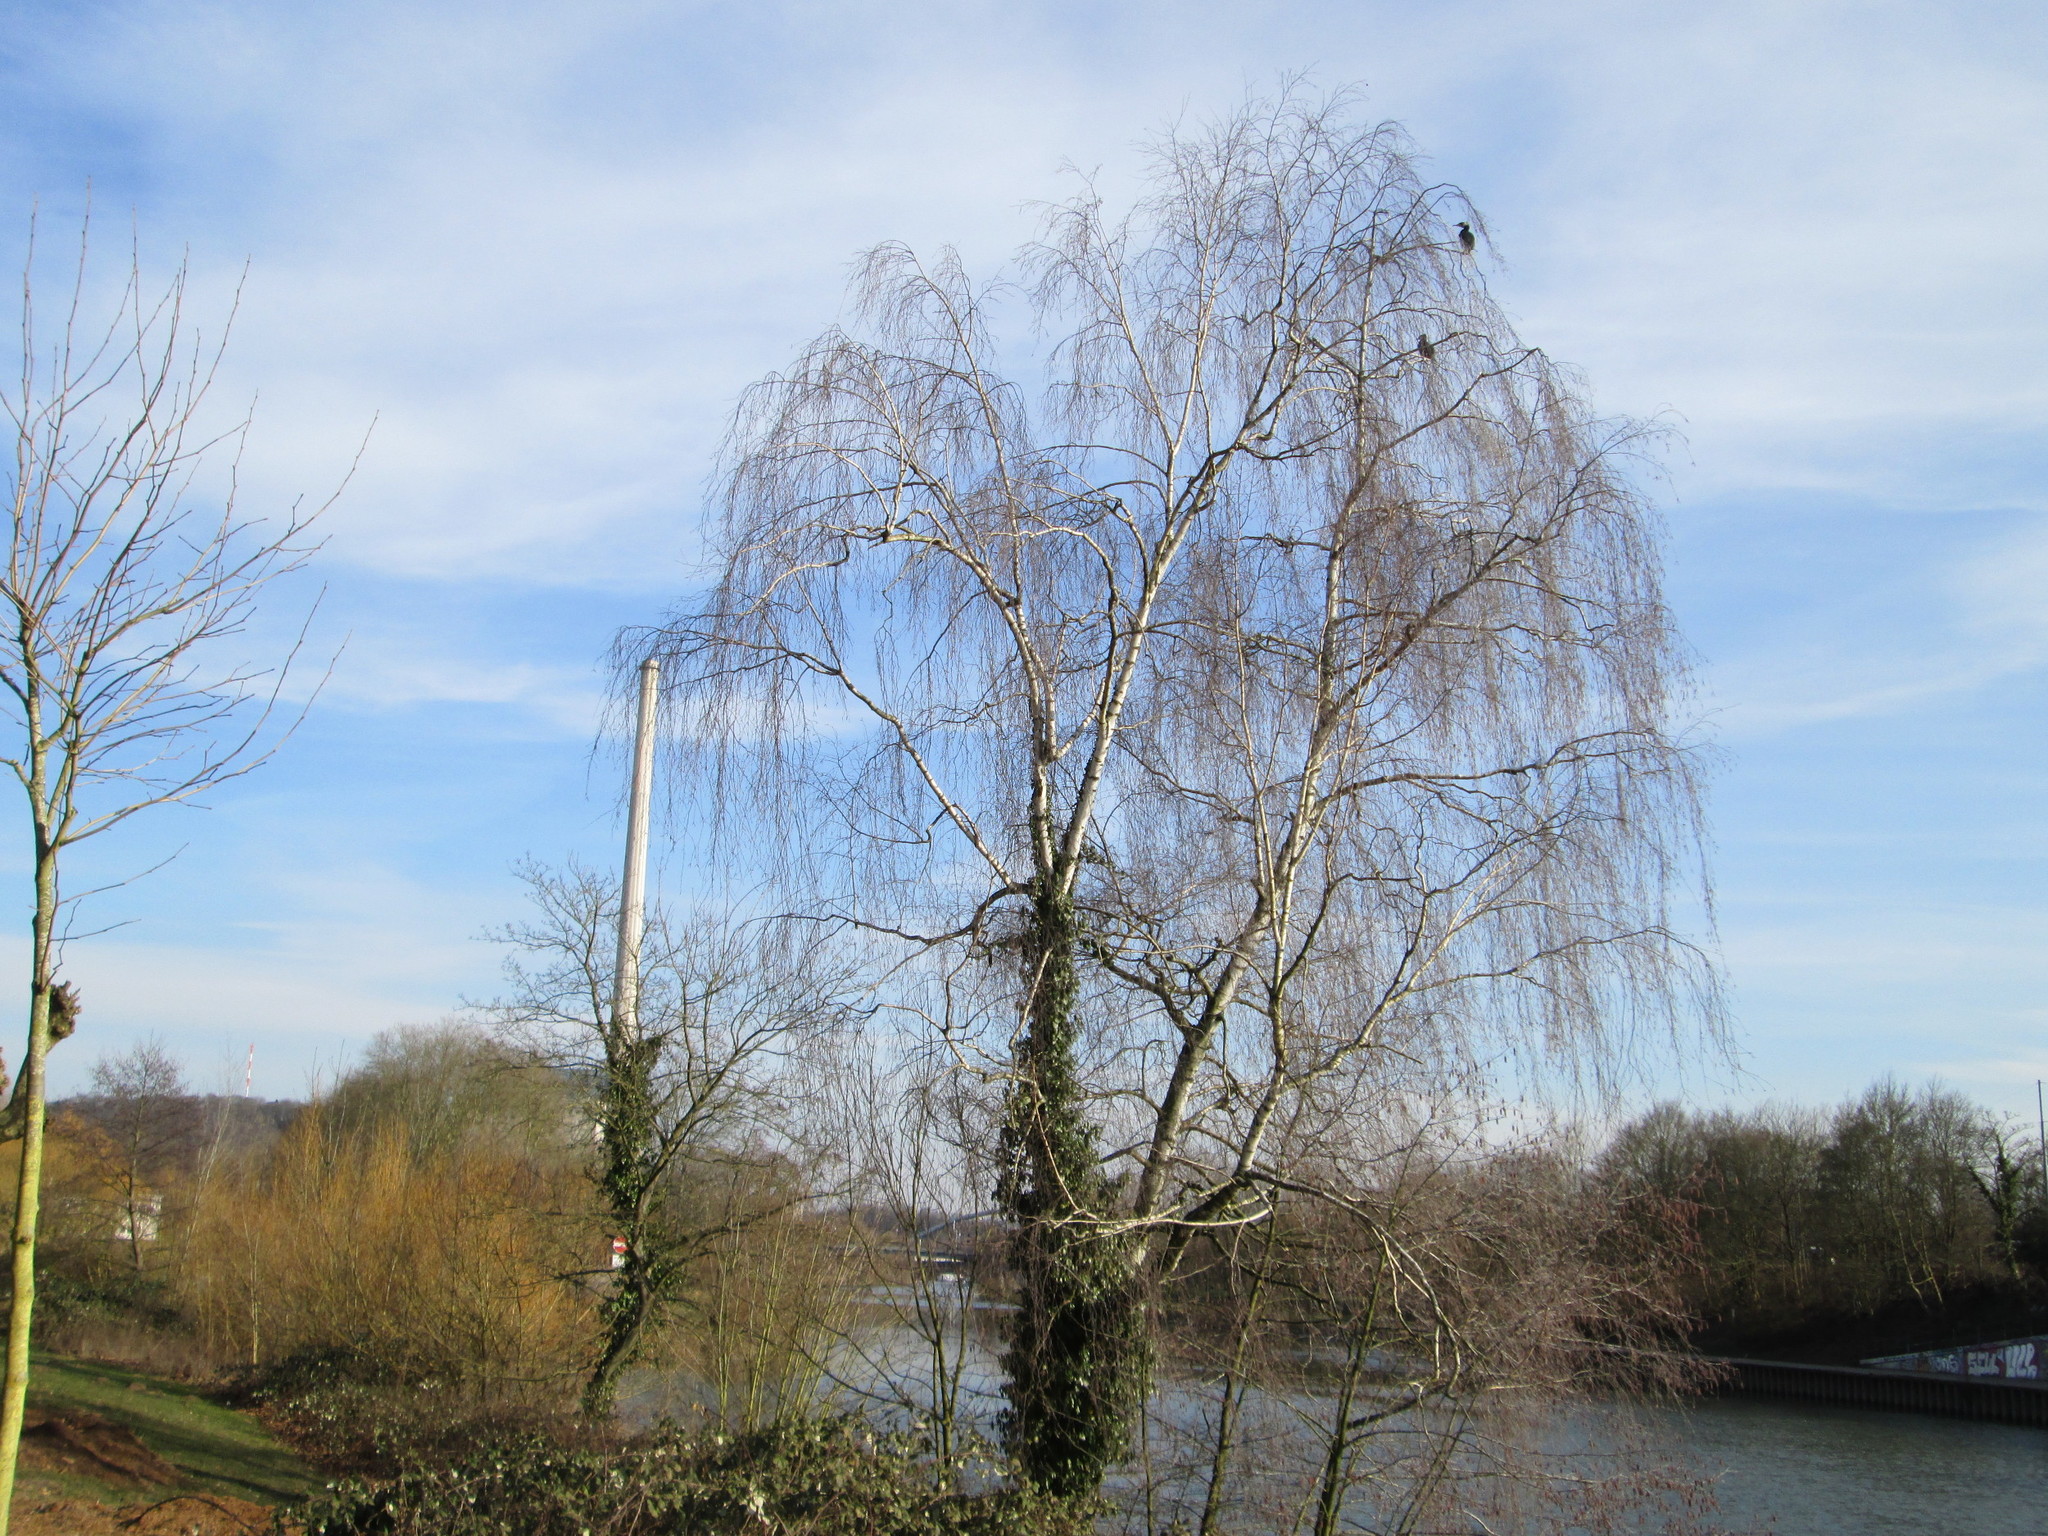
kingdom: Plantae
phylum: Tracheophyta
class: Magnoliopsida
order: Fagales
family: Betulaceae
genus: Betula
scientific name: Betula pendula
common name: Silver birch
